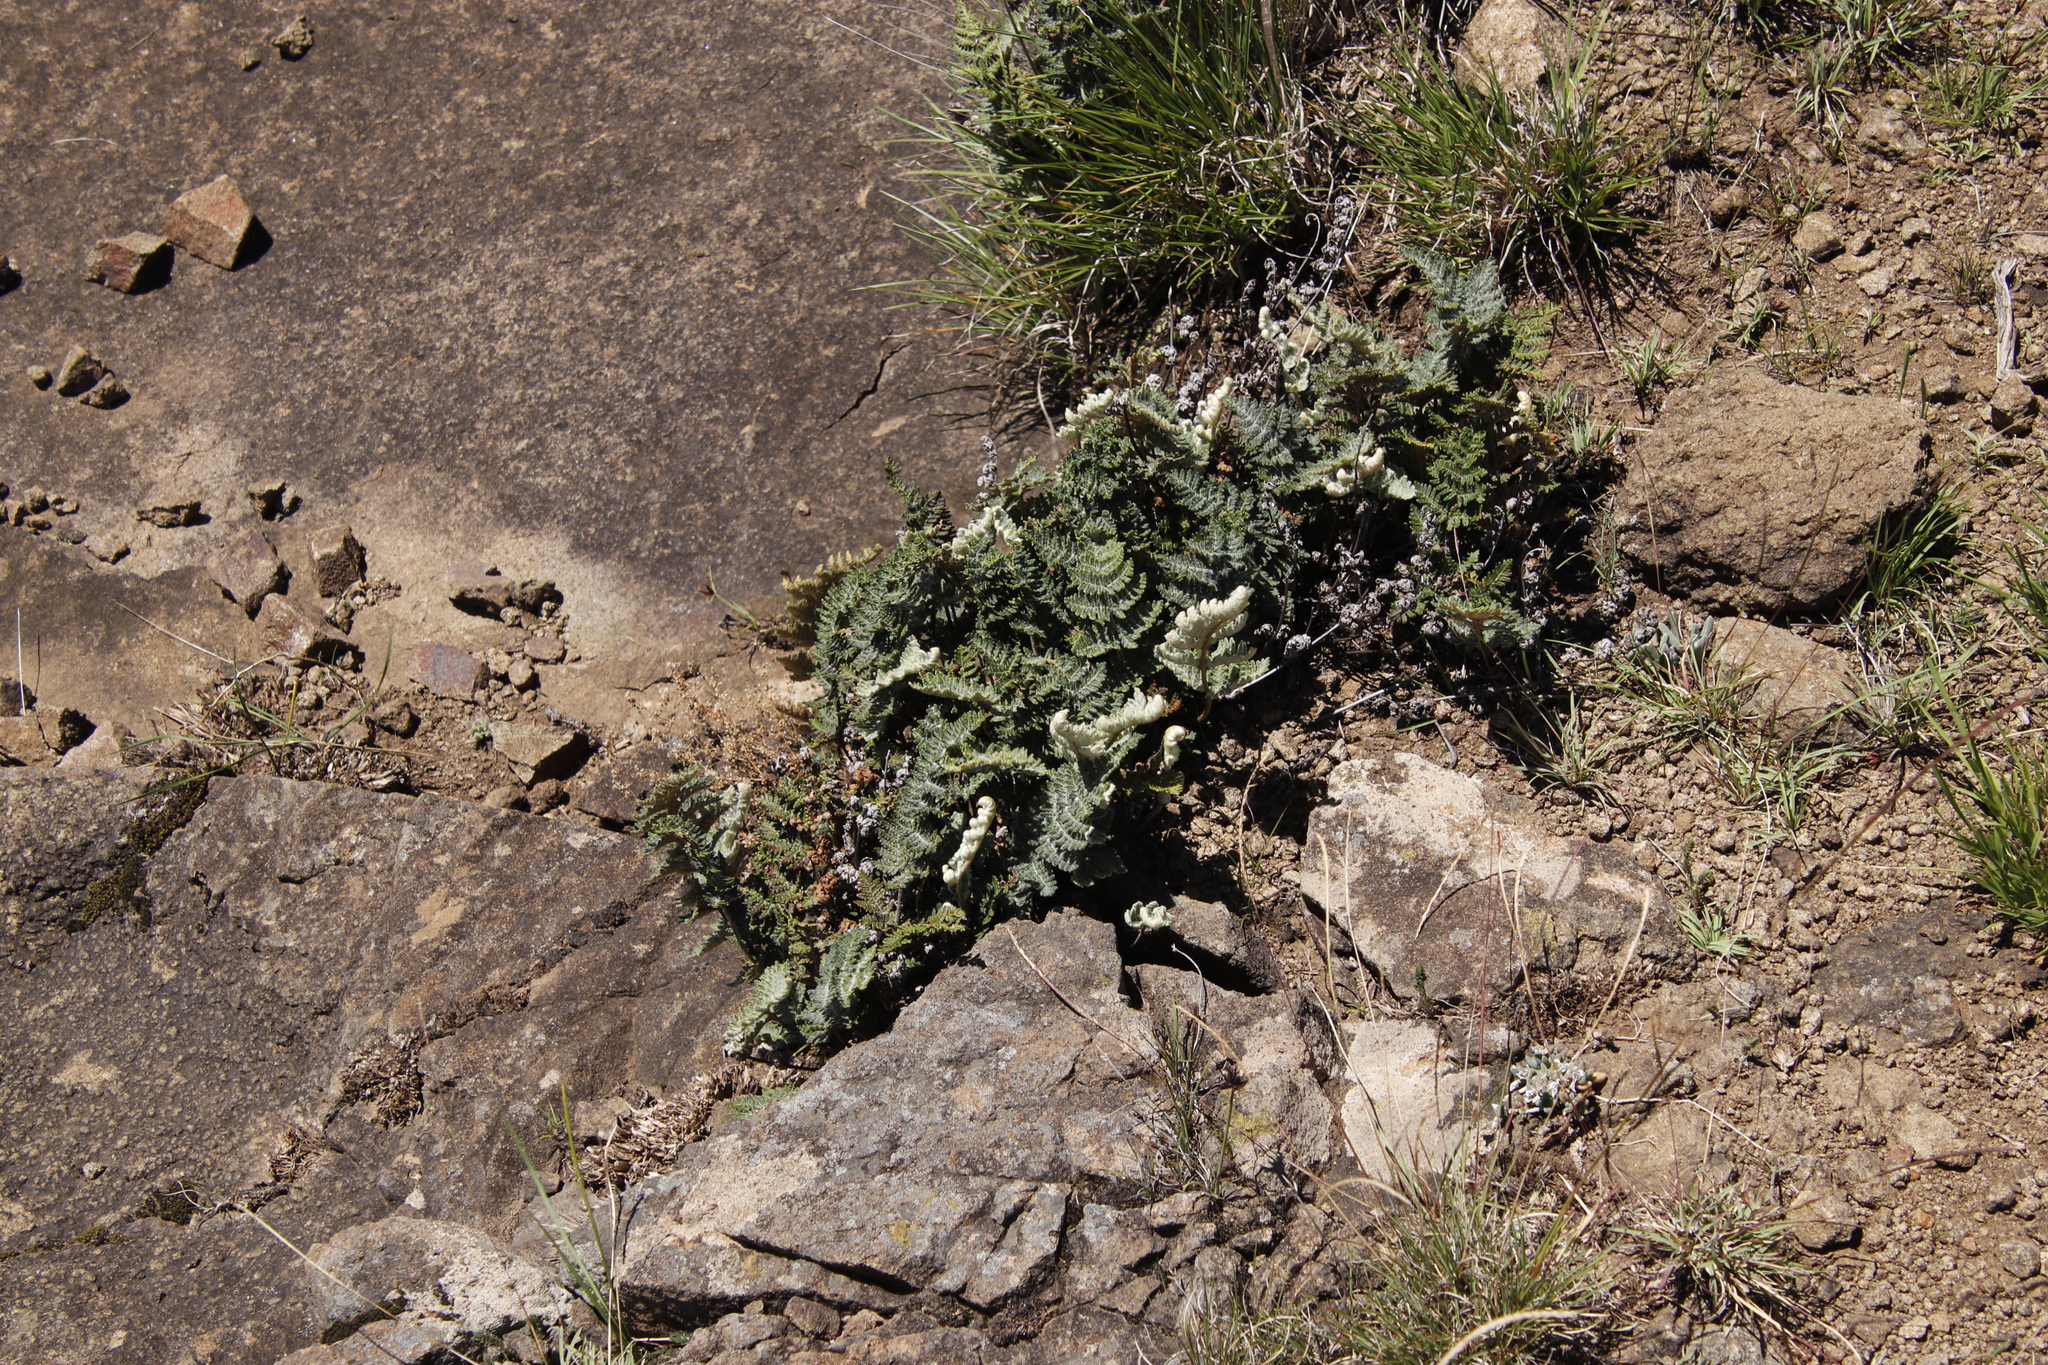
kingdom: Plantae
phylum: Tracheophyta
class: Polypodiopsida
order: Polypodiales
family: Pteridaceae
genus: Cheilanthes
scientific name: Cheilanthes eckloniana
